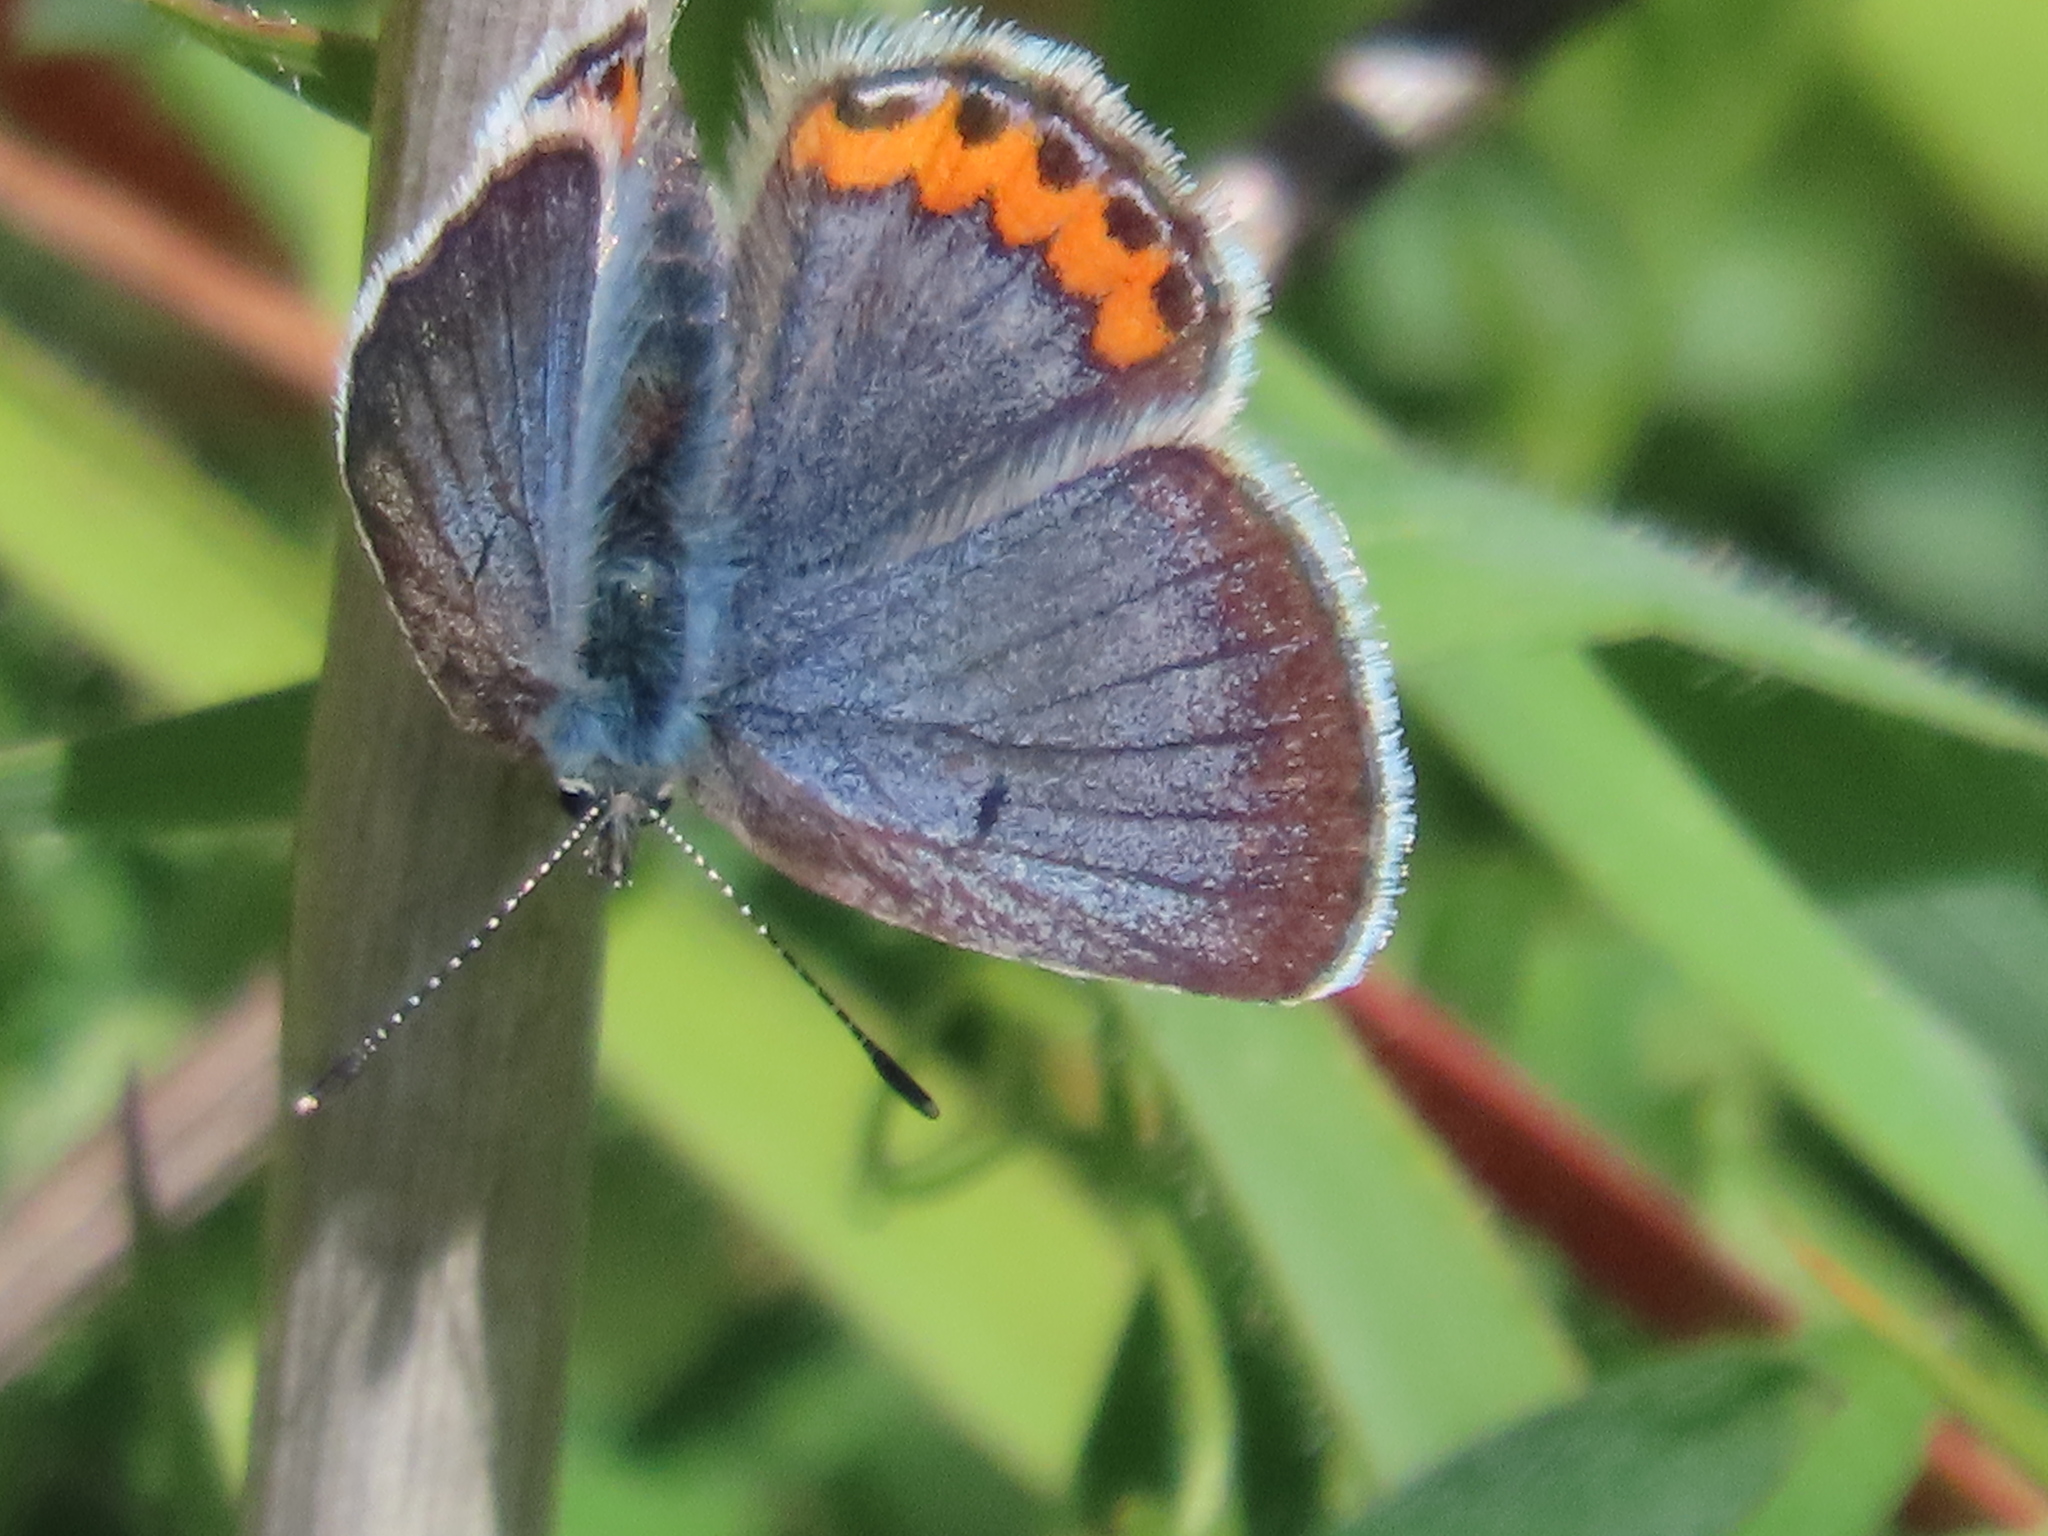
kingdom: Animalia
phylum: Arthropoda
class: Insecta
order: Lepidoptera
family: Lycaenidae
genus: Icaricia
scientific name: Icaricia acmon
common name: Acmon blue
